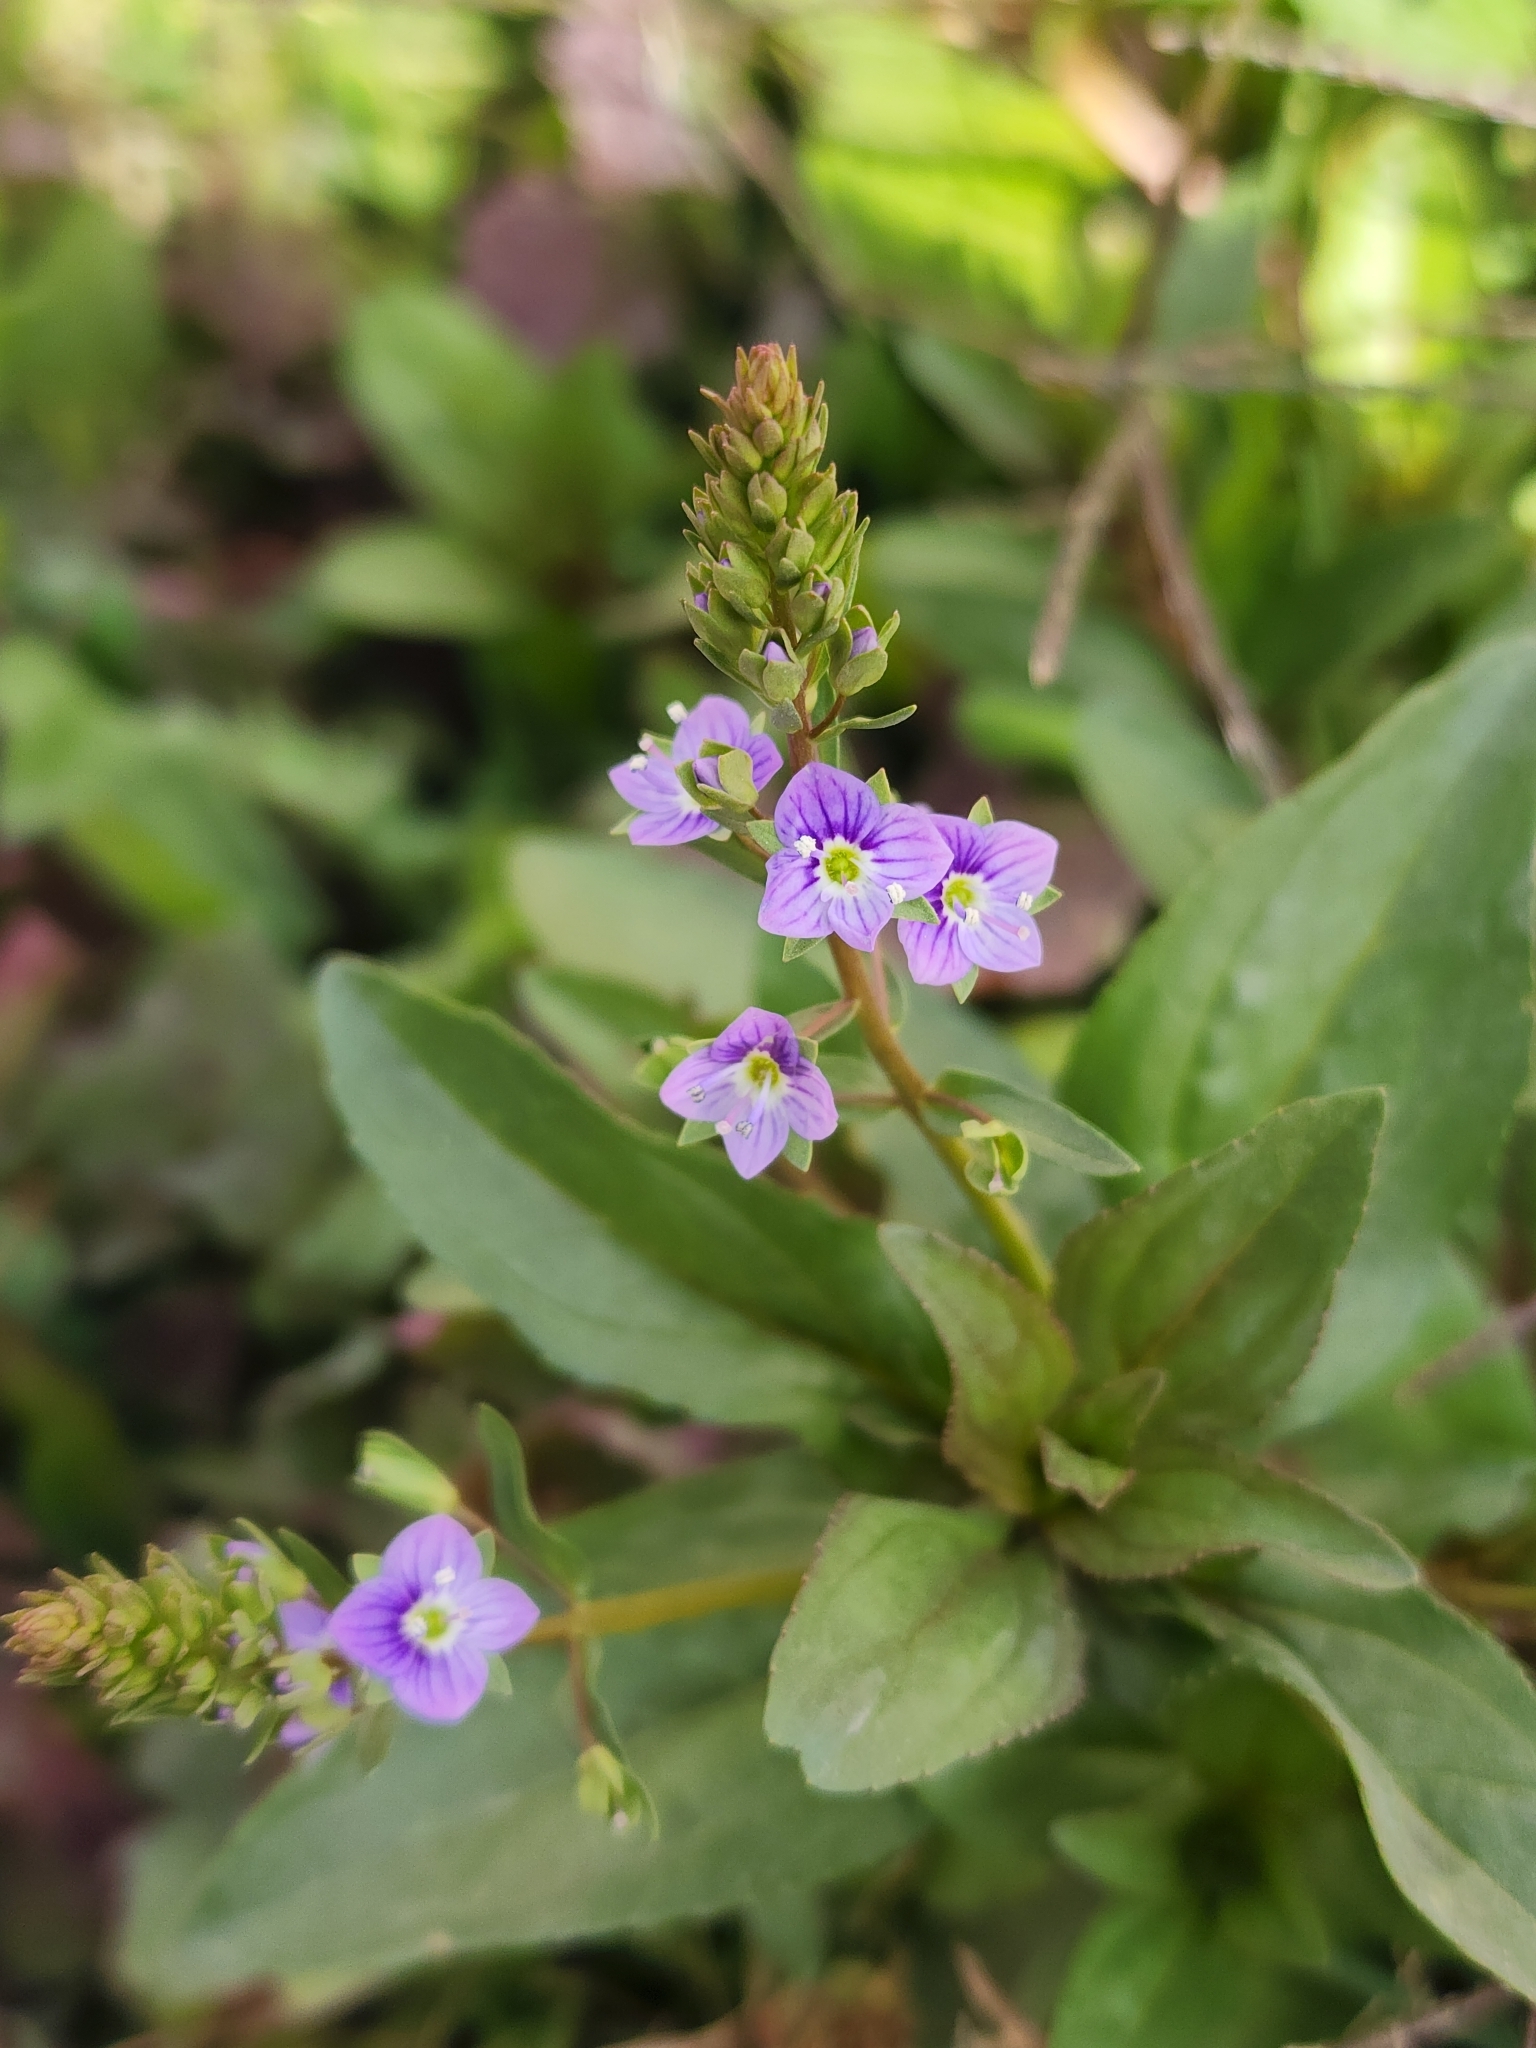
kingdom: Plantae
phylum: Tracheophyta
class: Magnoliopsida
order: Lamiales
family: Plantaginaceae
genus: Veronica
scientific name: Veronica anagallis-aquatica
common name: Water speedwell
